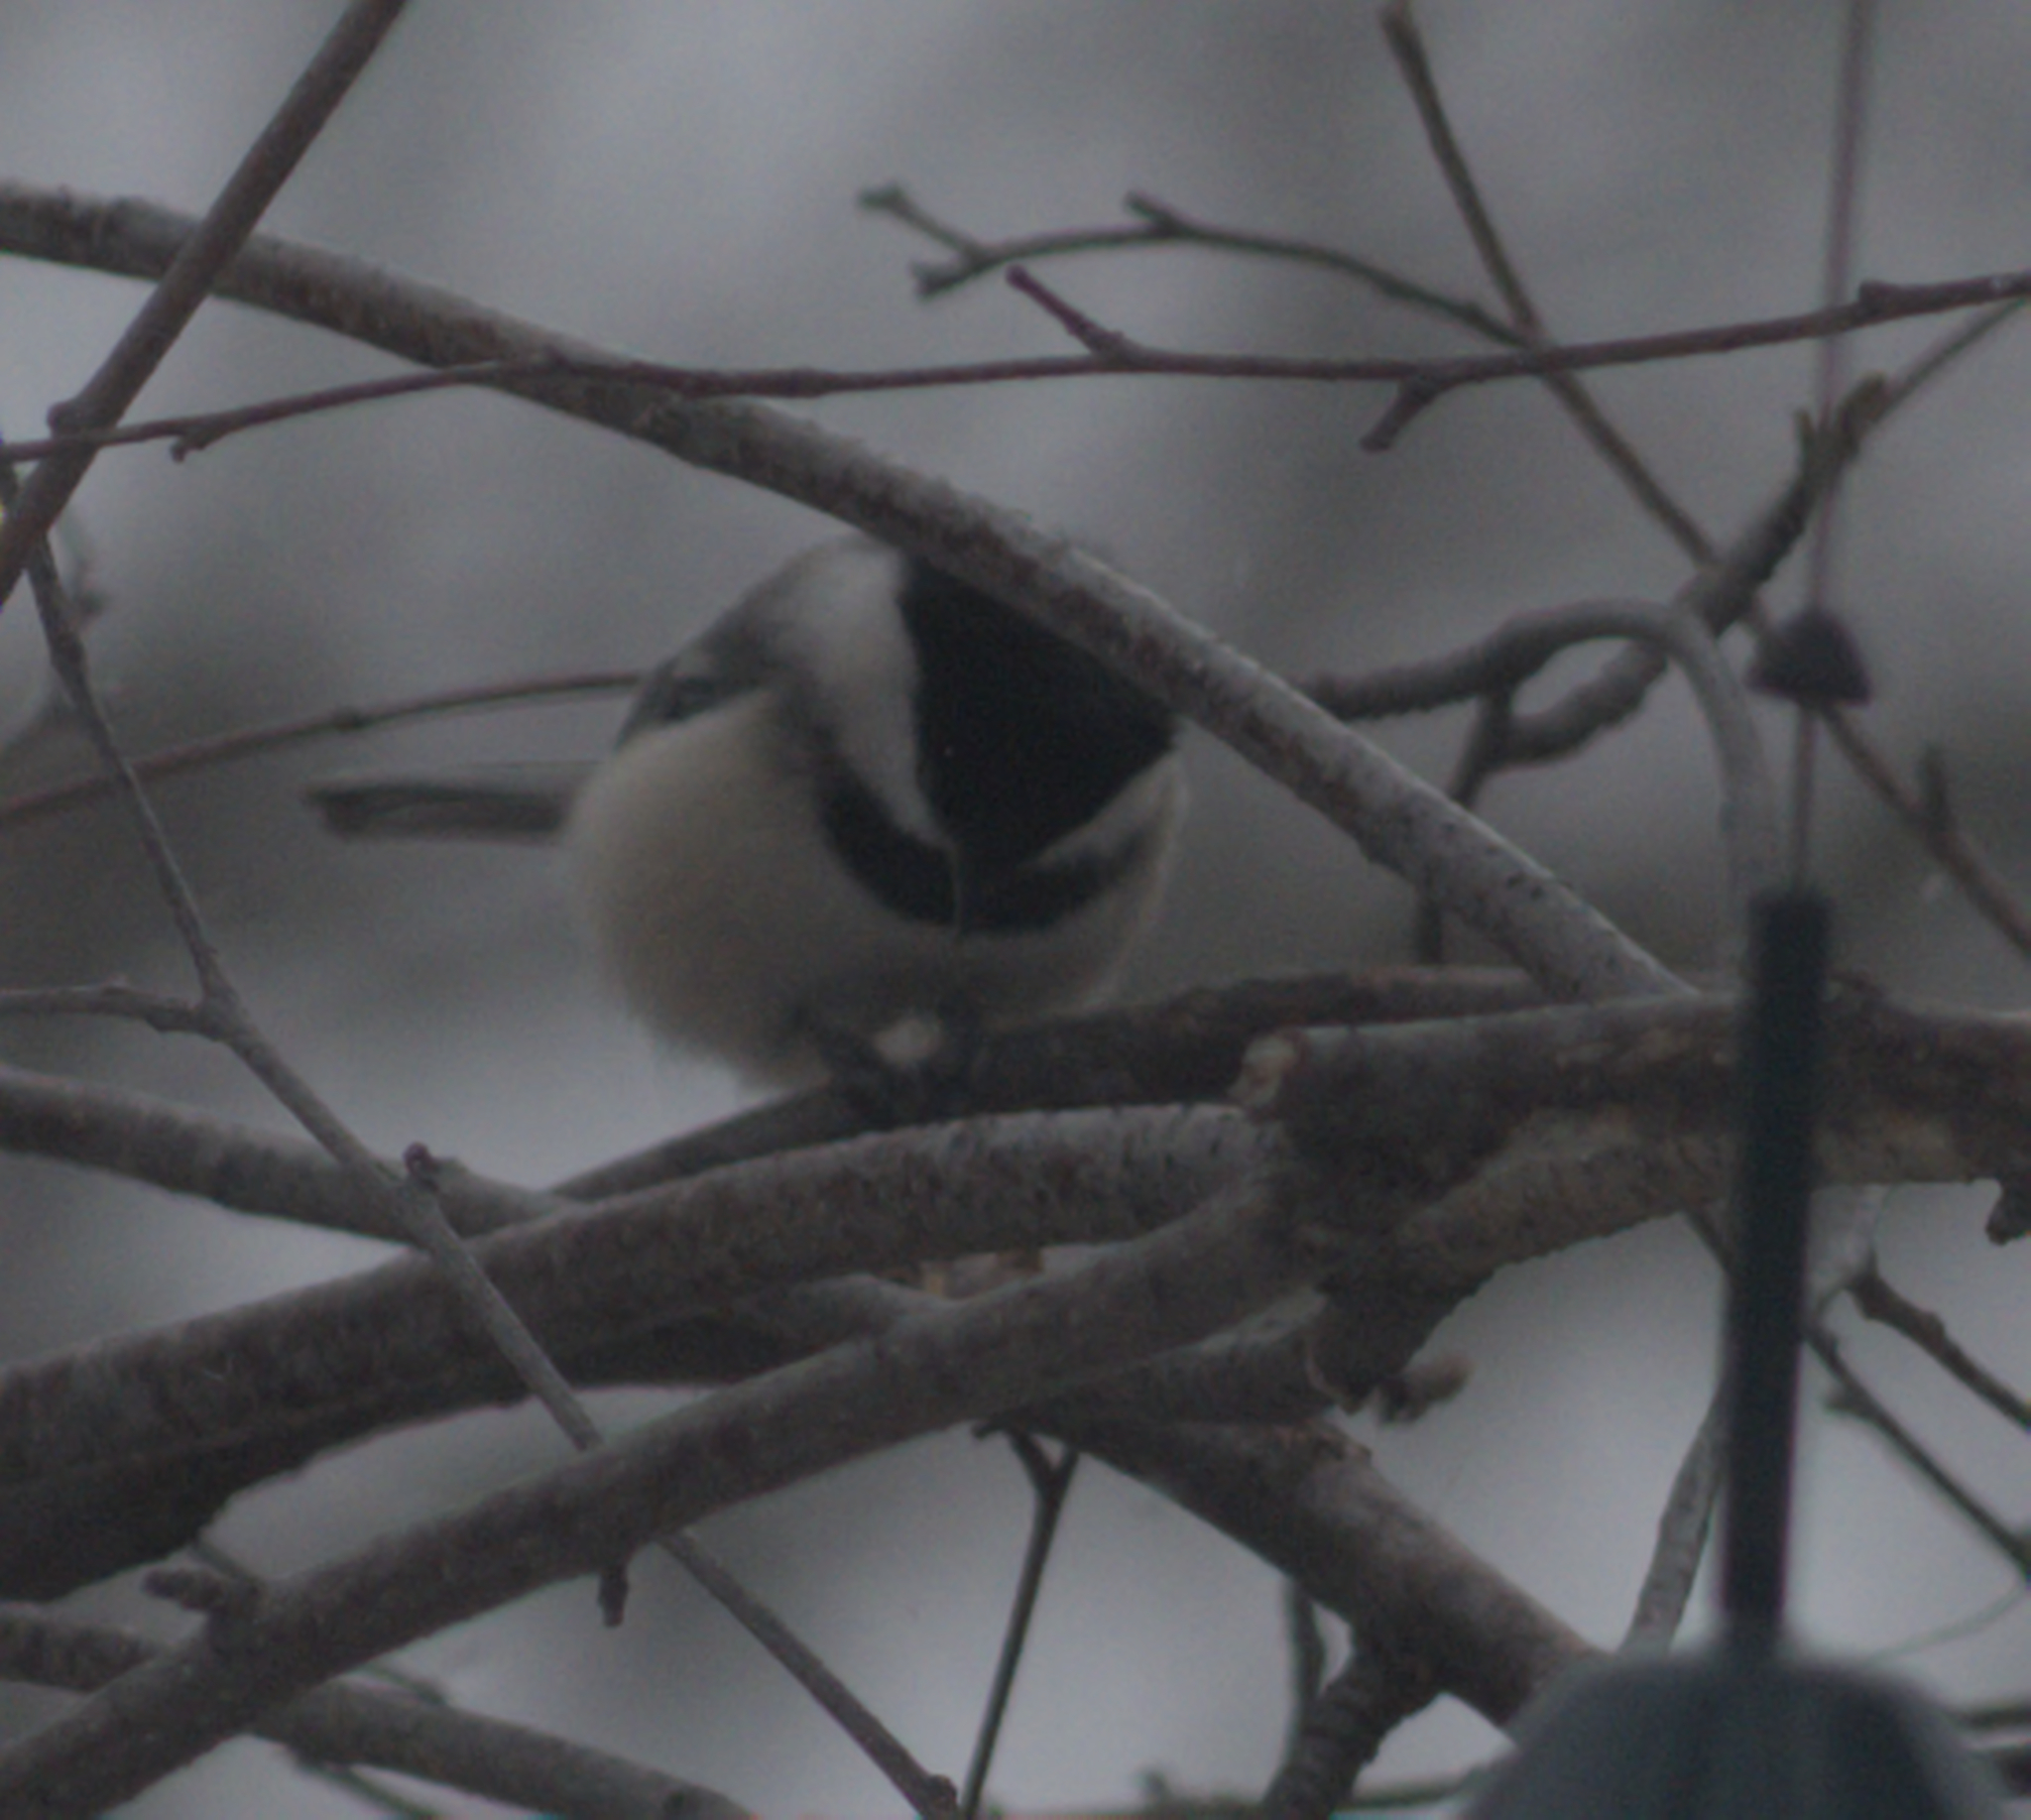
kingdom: Animalia
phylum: Chordata
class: Aves
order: Passeriformes
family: Paridae
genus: Poecile
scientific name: Poecile atricapillus
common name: Black-capped chickadee
